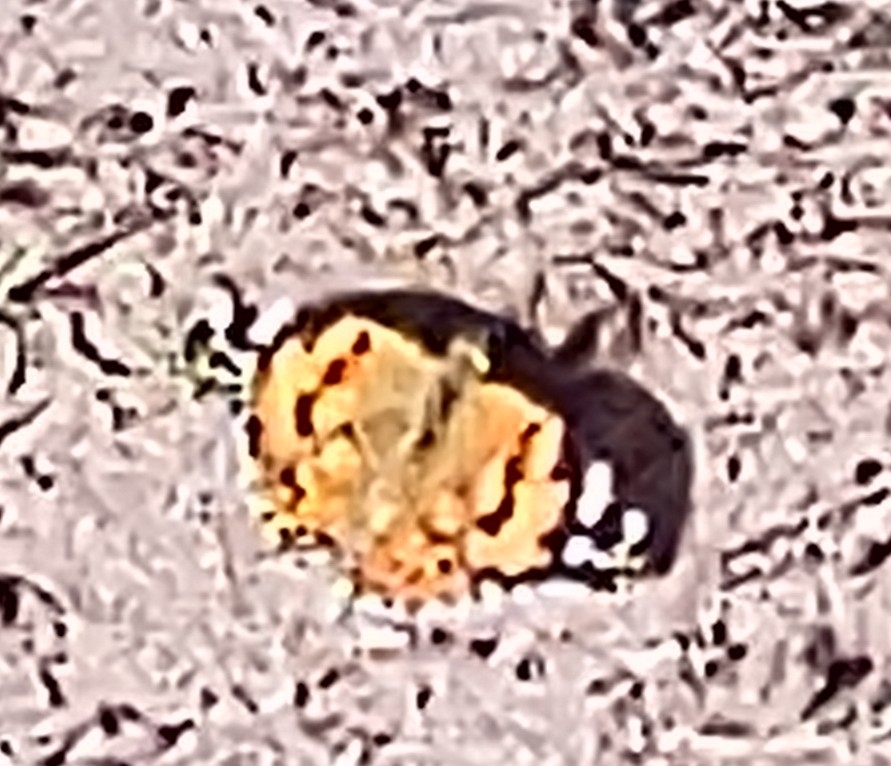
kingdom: Animalia
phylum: Arthropoda
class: Insecta
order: Lepidoptera
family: Nymphalidae
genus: Vanessa
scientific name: Vanessa cardui
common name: Painted lady
